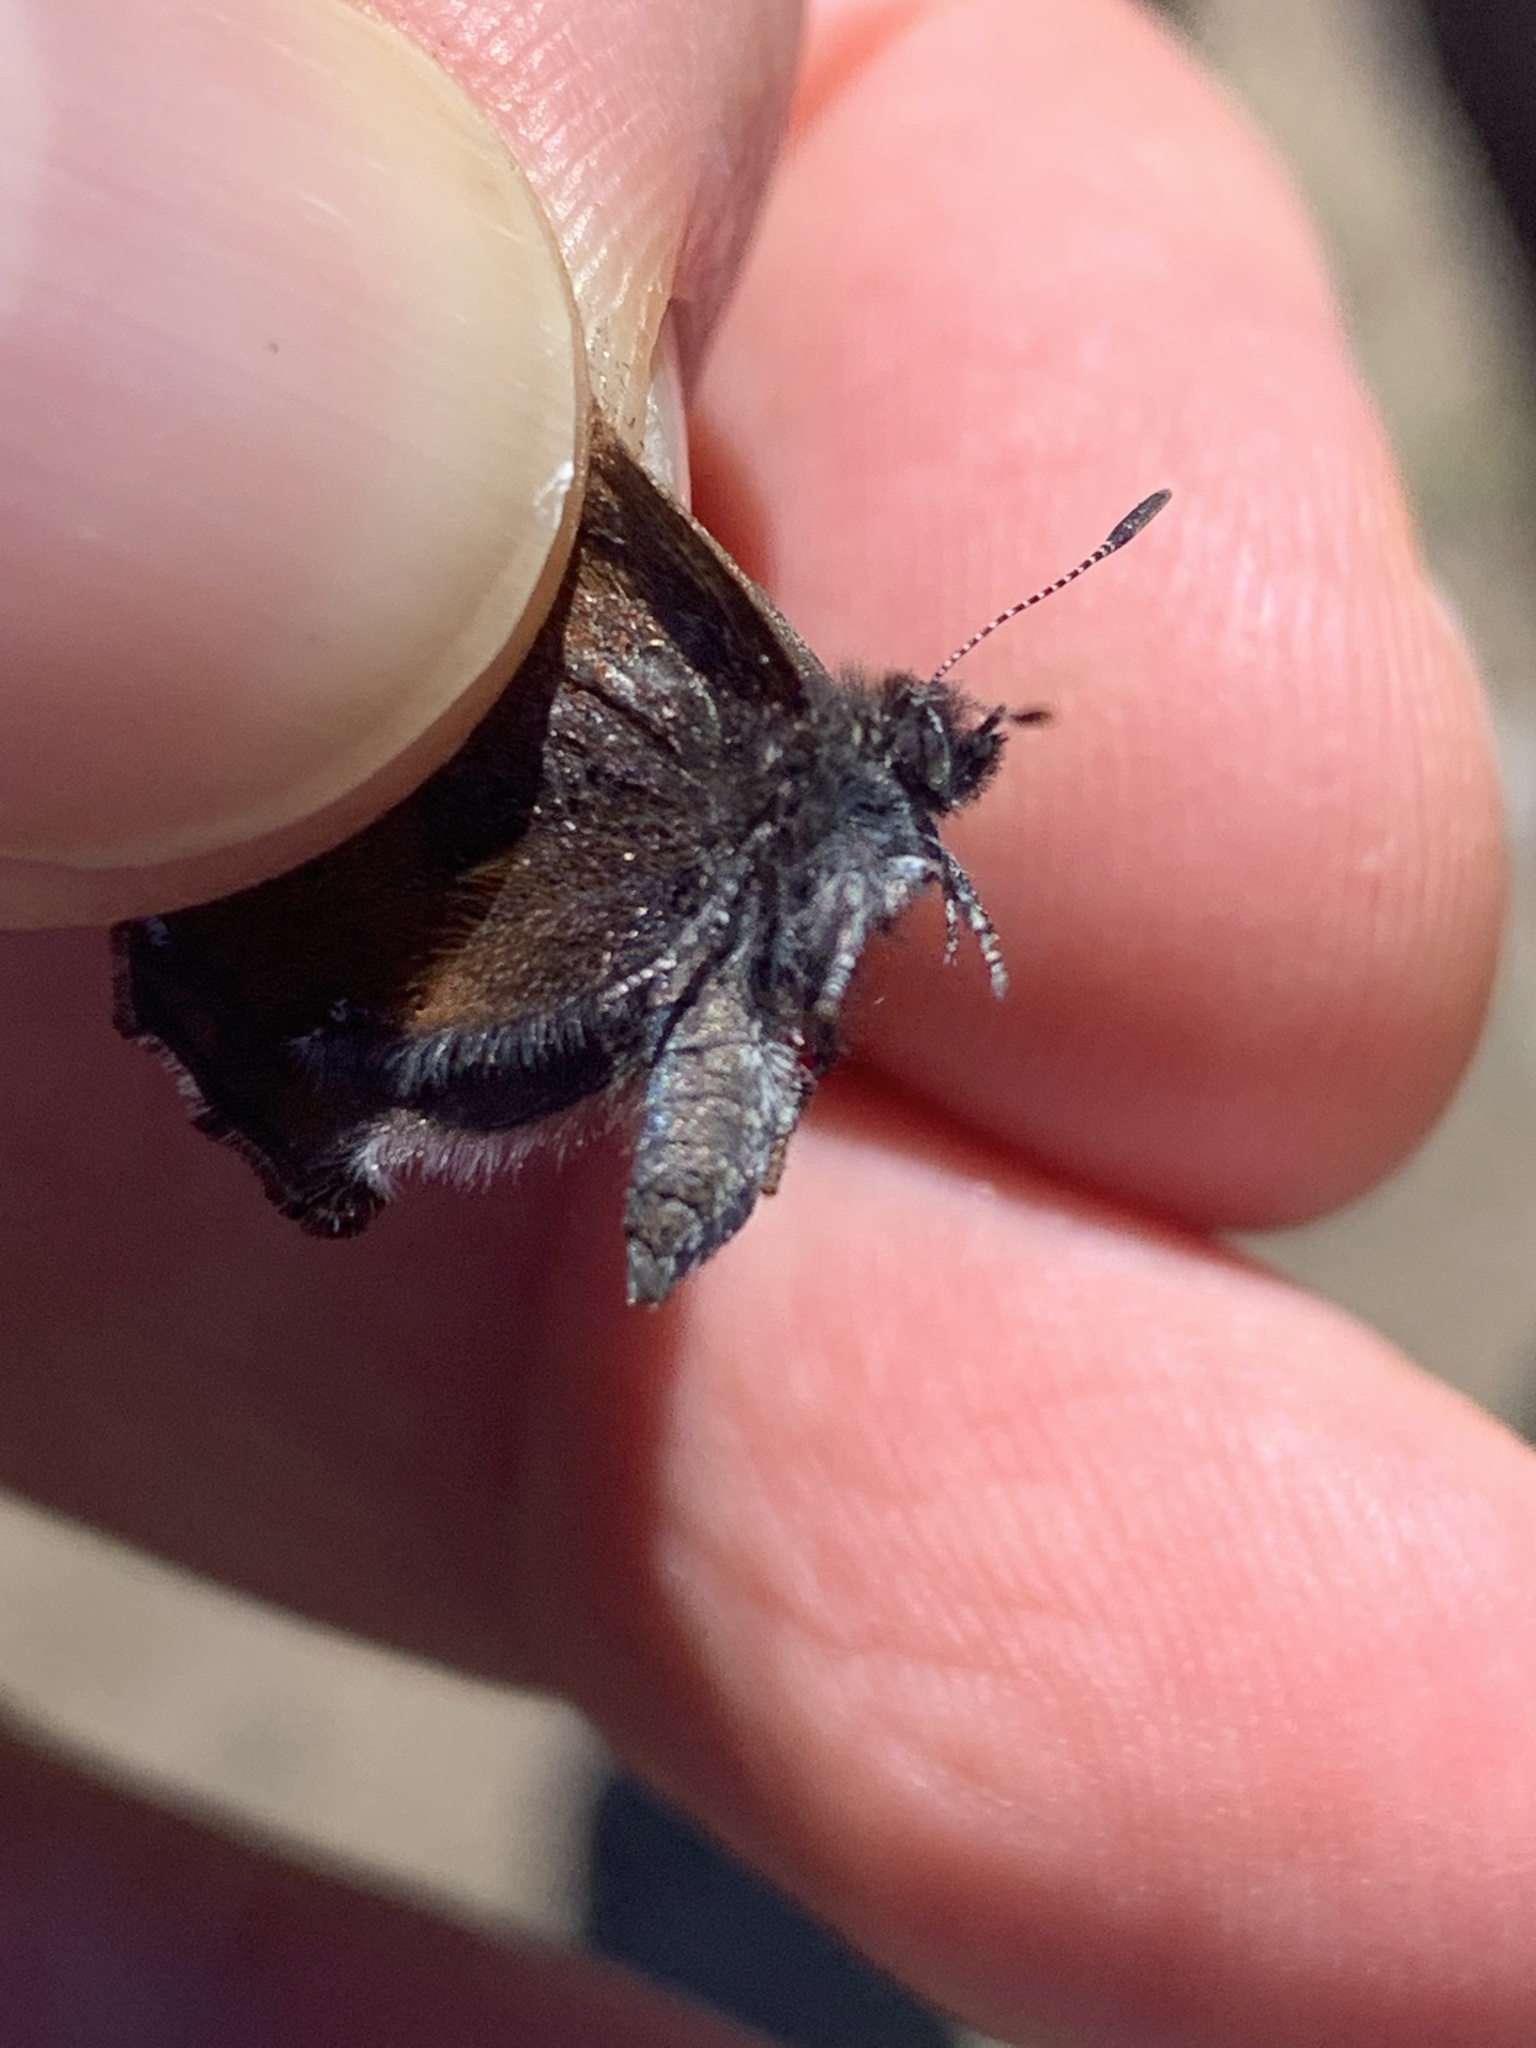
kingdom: Animalia
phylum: Arthropoda
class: Insecta
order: Lepidoptera
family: Lycaenidae
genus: Incisalia
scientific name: Incisalia irioides
